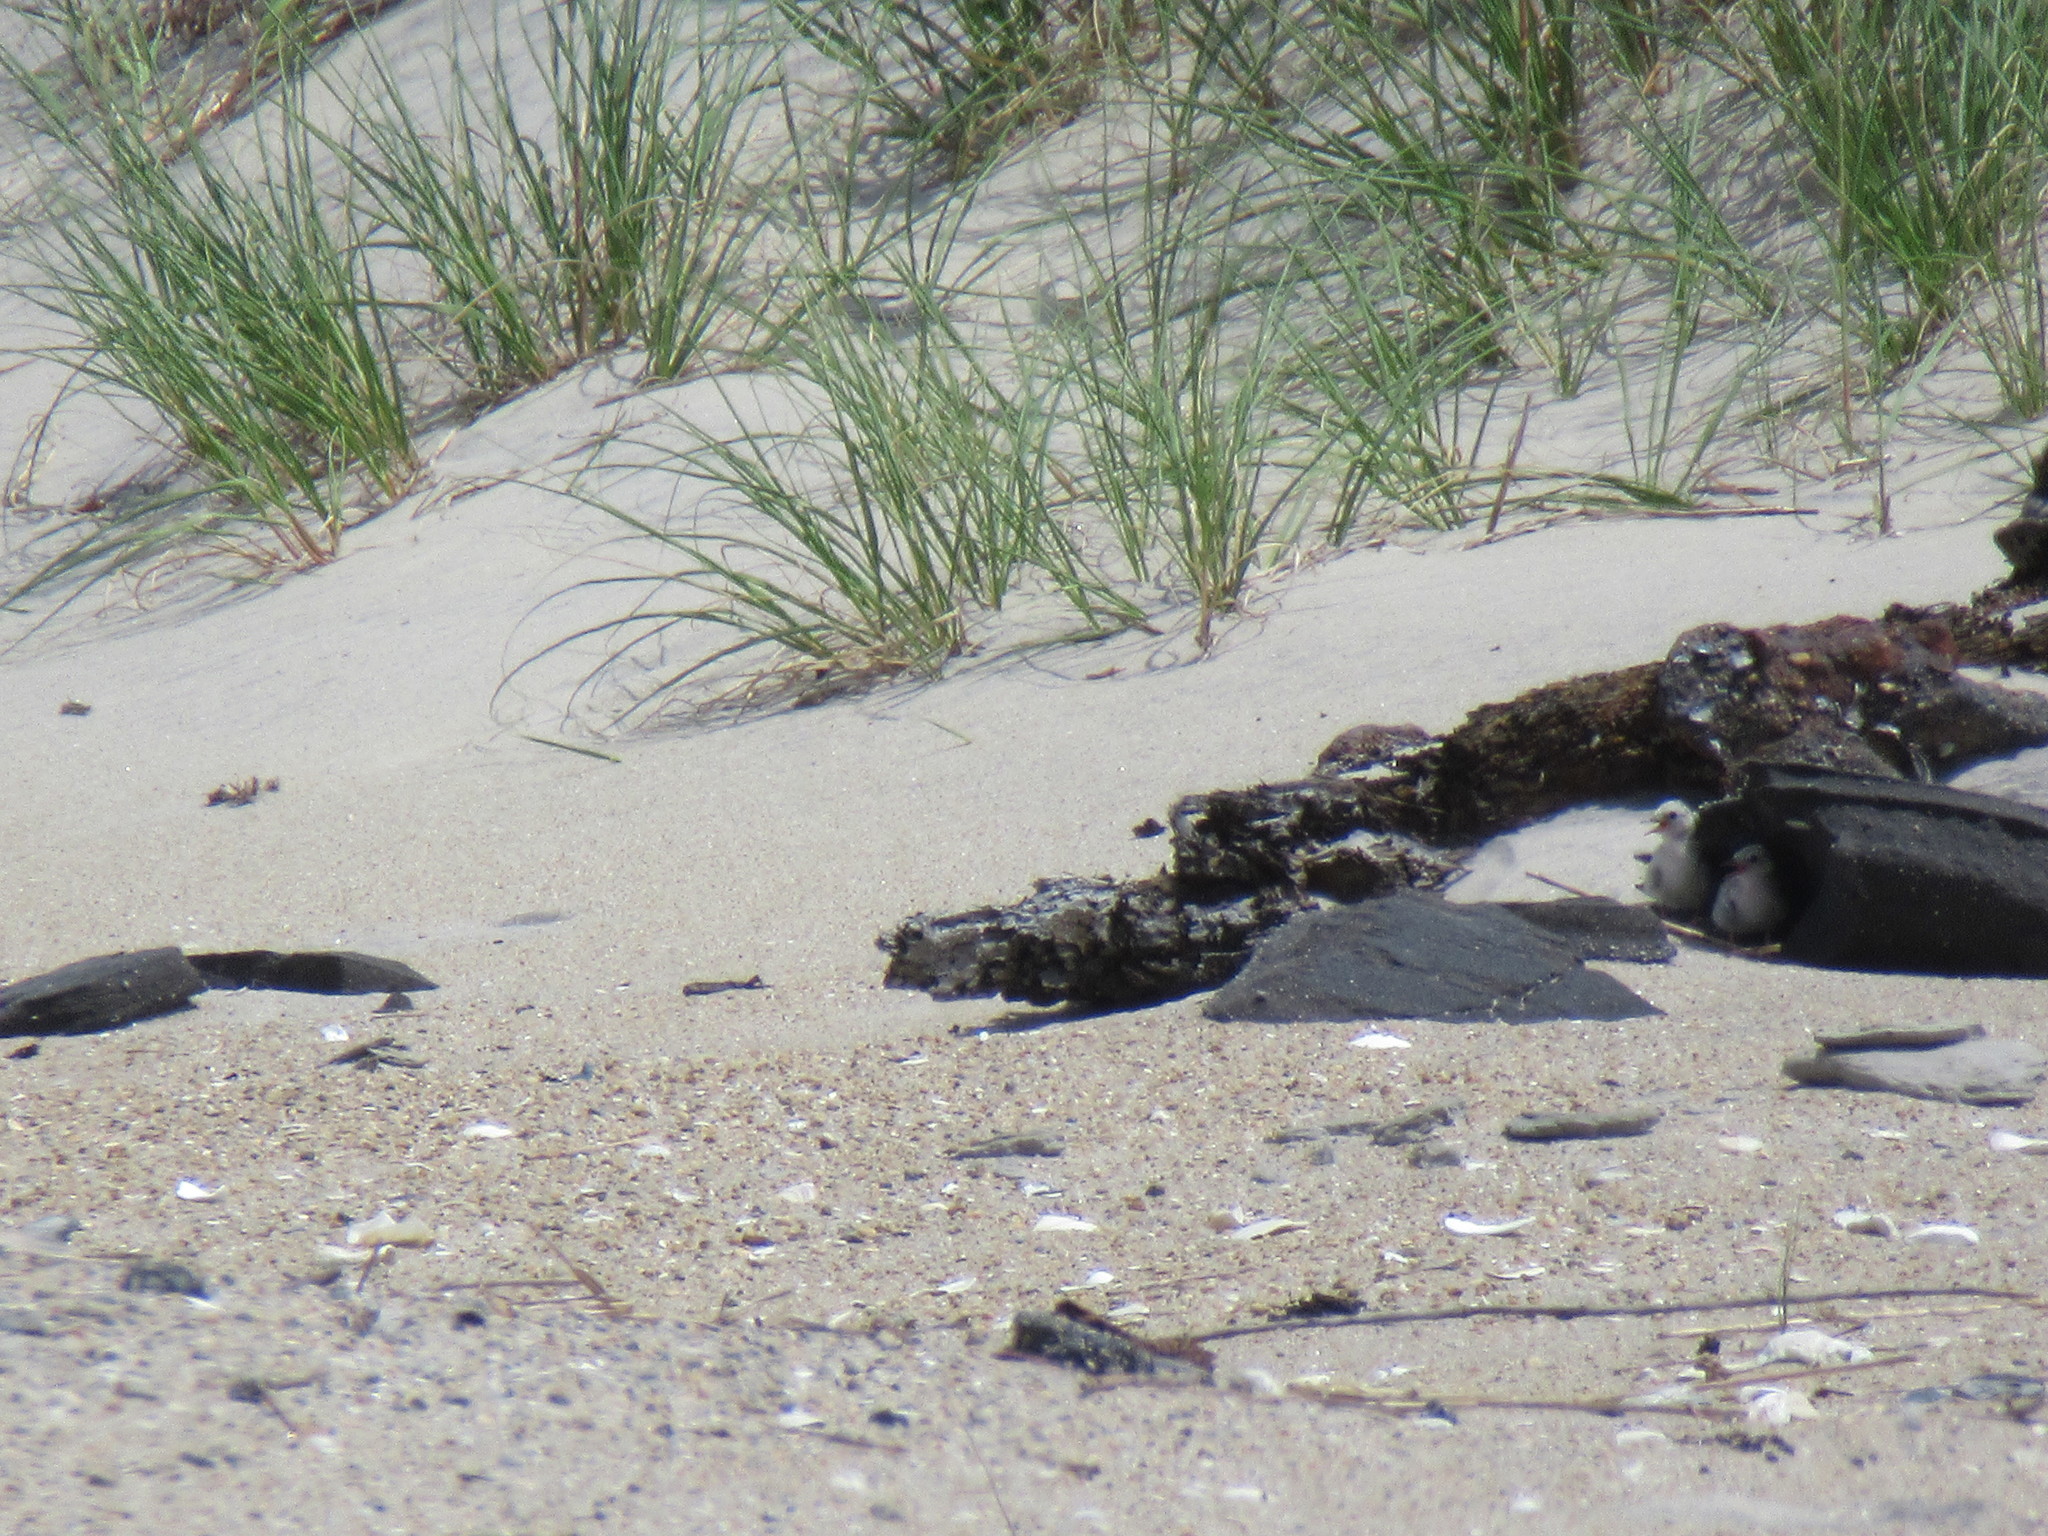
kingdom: Animalia
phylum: Chordata
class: Aves
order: Charadriiformes
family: Laridae
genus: Sternula
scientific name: Sternula antillarum
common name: Least tern
